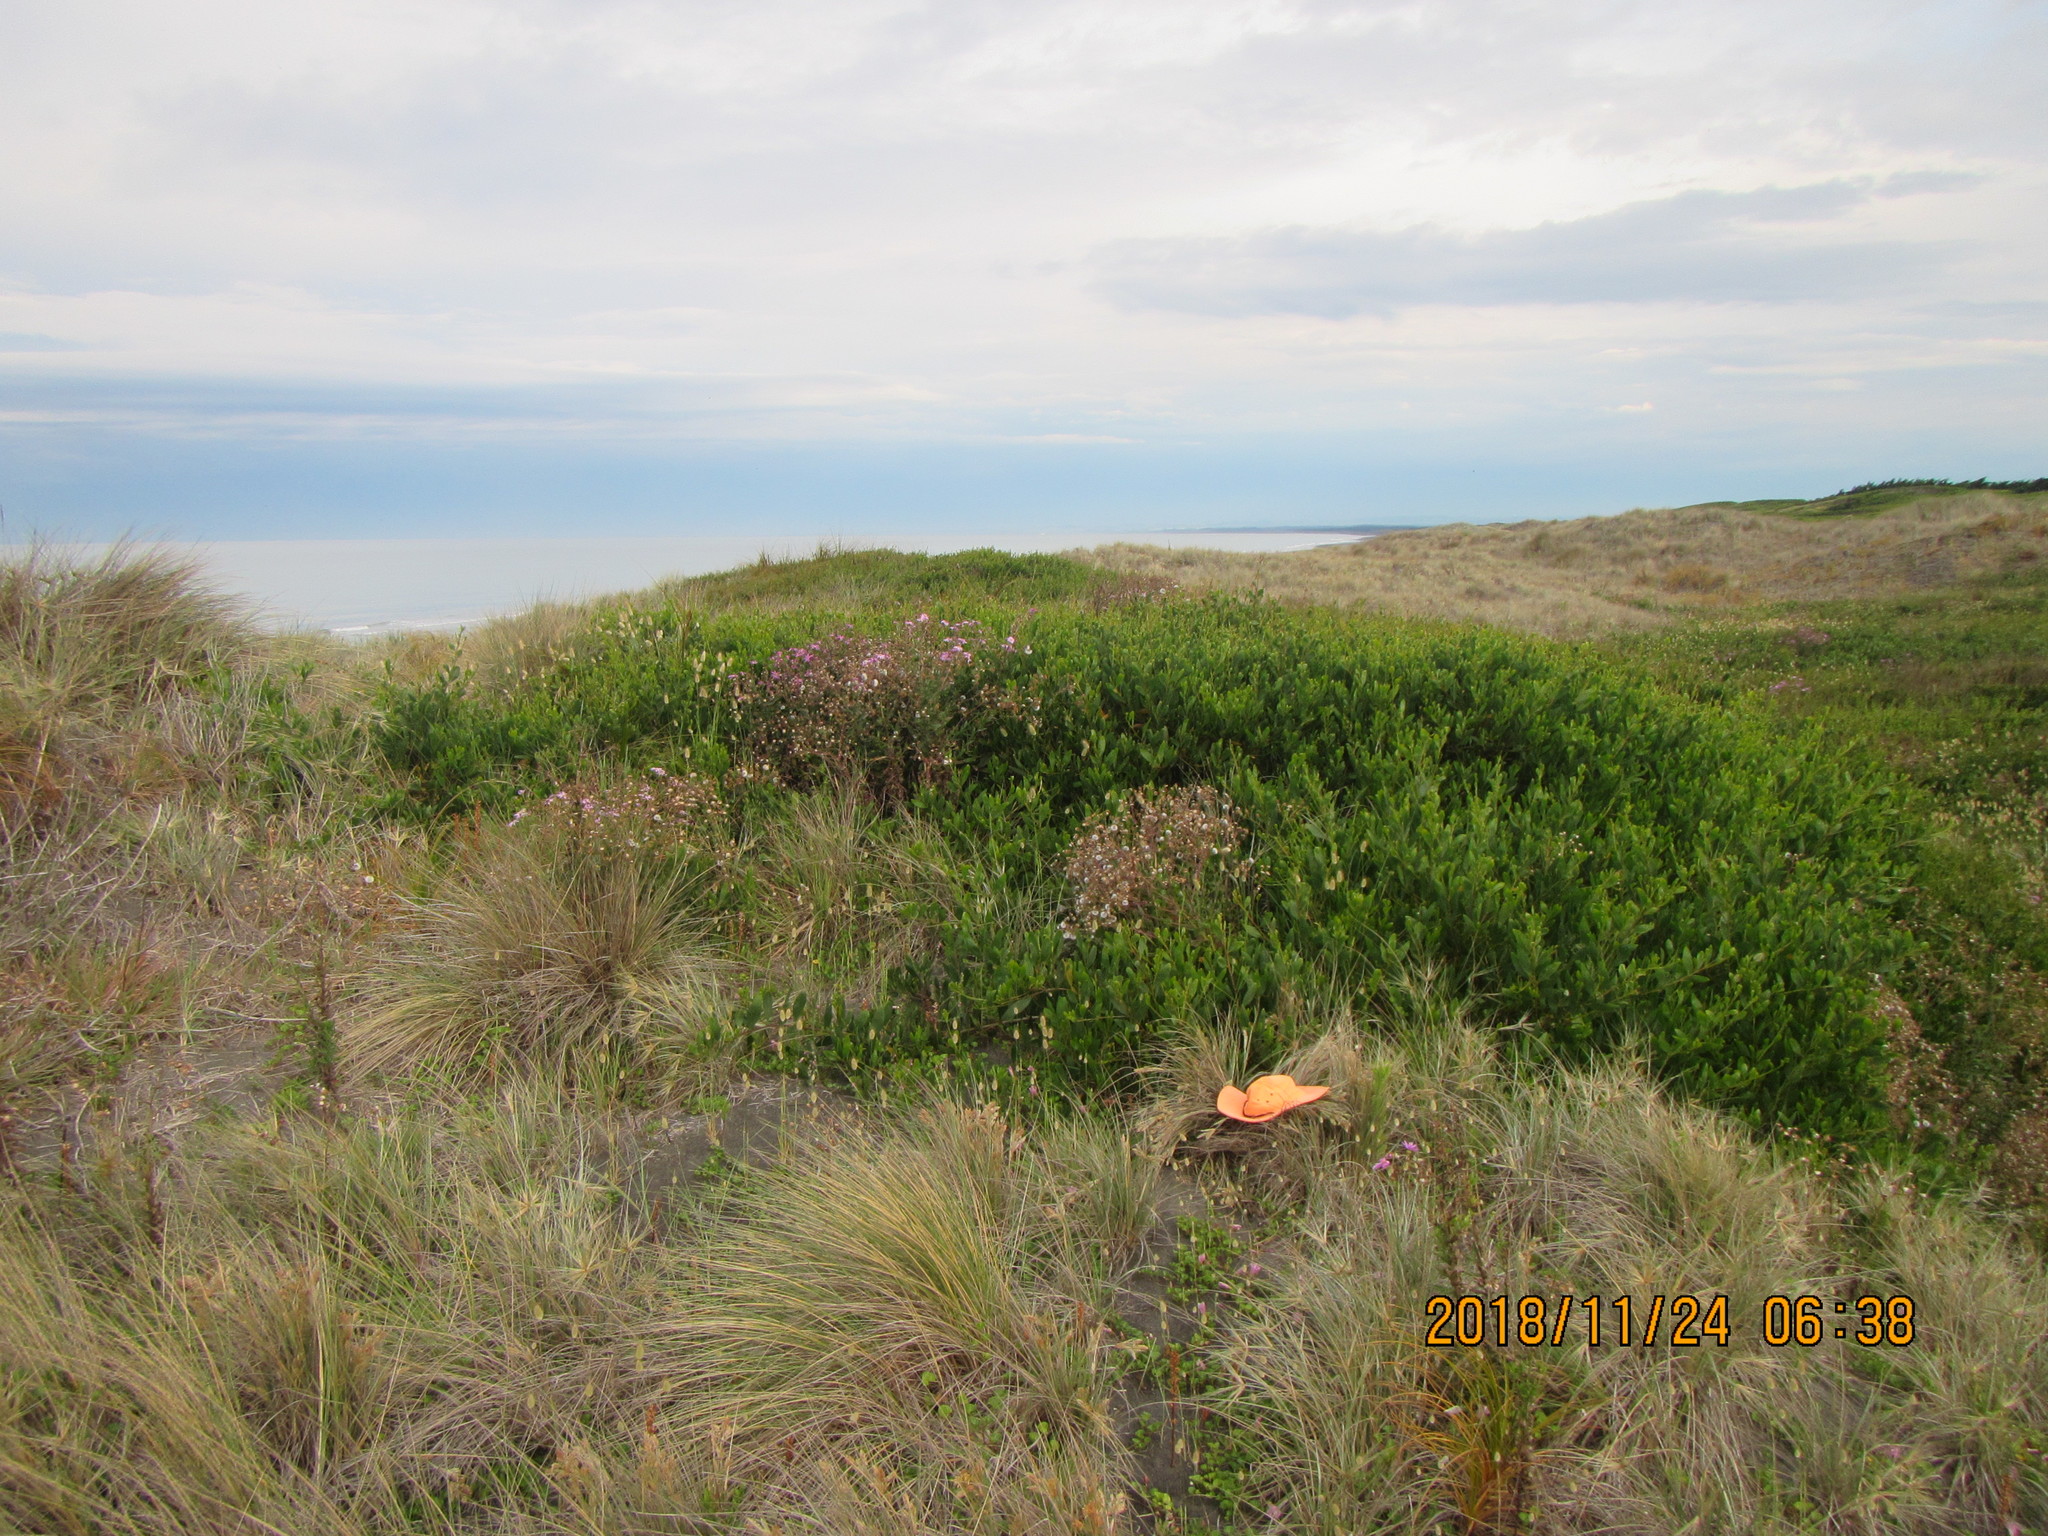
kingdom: Animalia
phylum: Arthropoda
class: Arachnida
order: Araneae
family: Oxyopidae
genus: Oxyopes
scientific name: Oxyopes gracilipes
